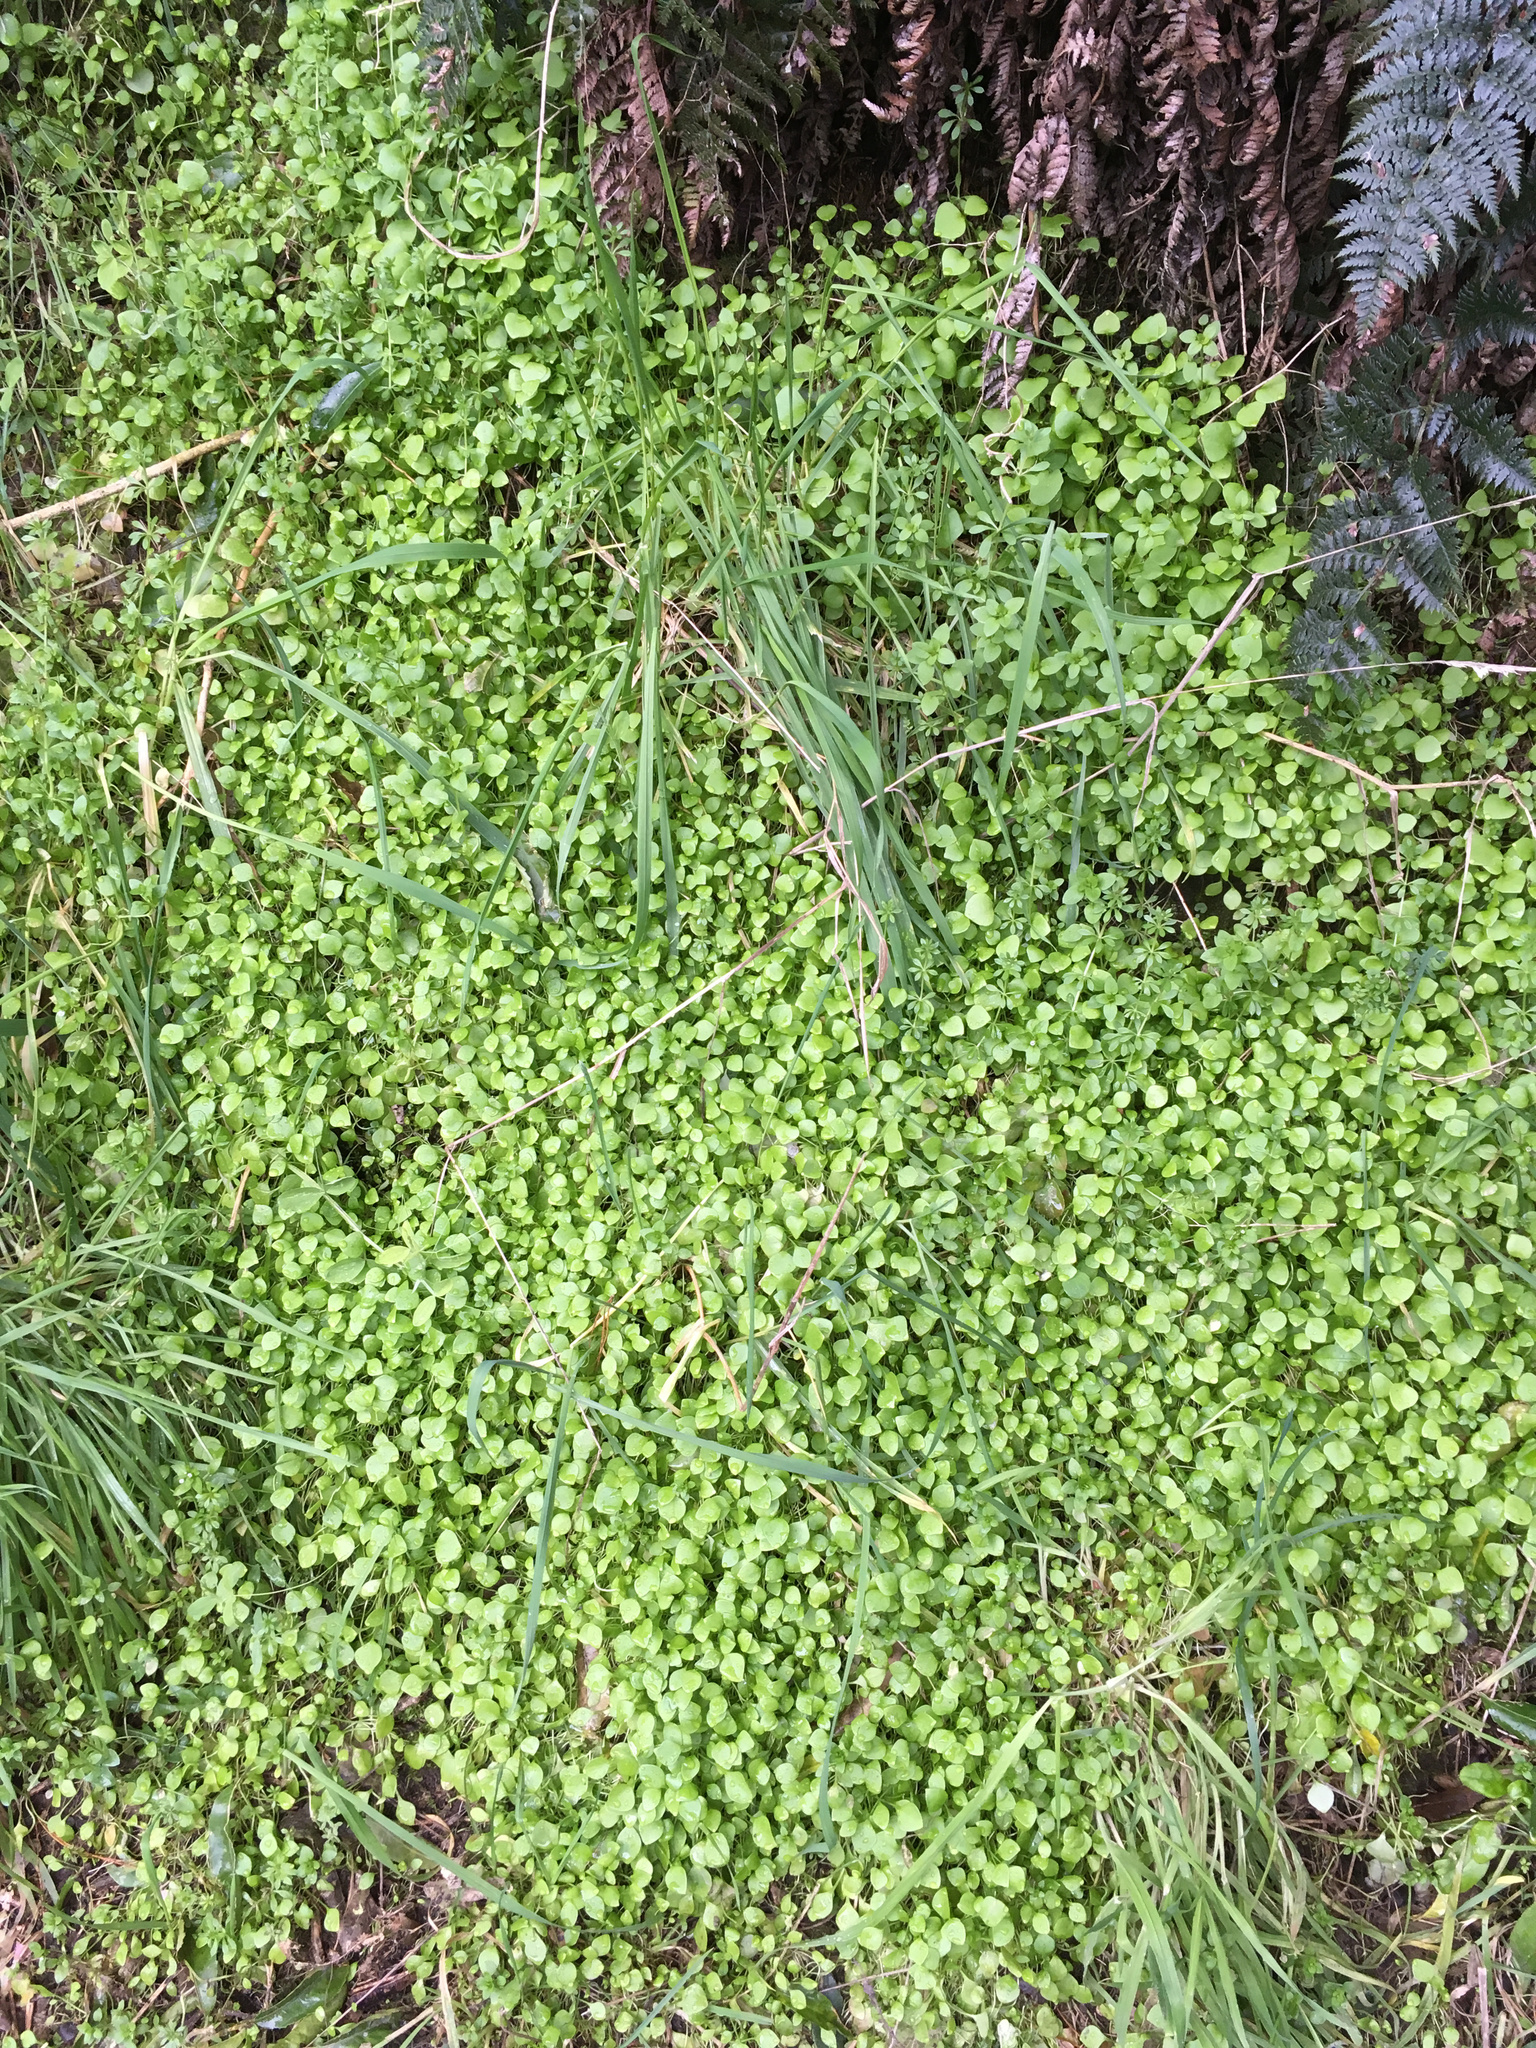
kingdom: Plantae
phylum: Tracheophyta
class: Magnoliopsida
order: Caryophyllales
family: Montiaceae
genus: Claytonia
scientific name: Claytonia perfoliata
